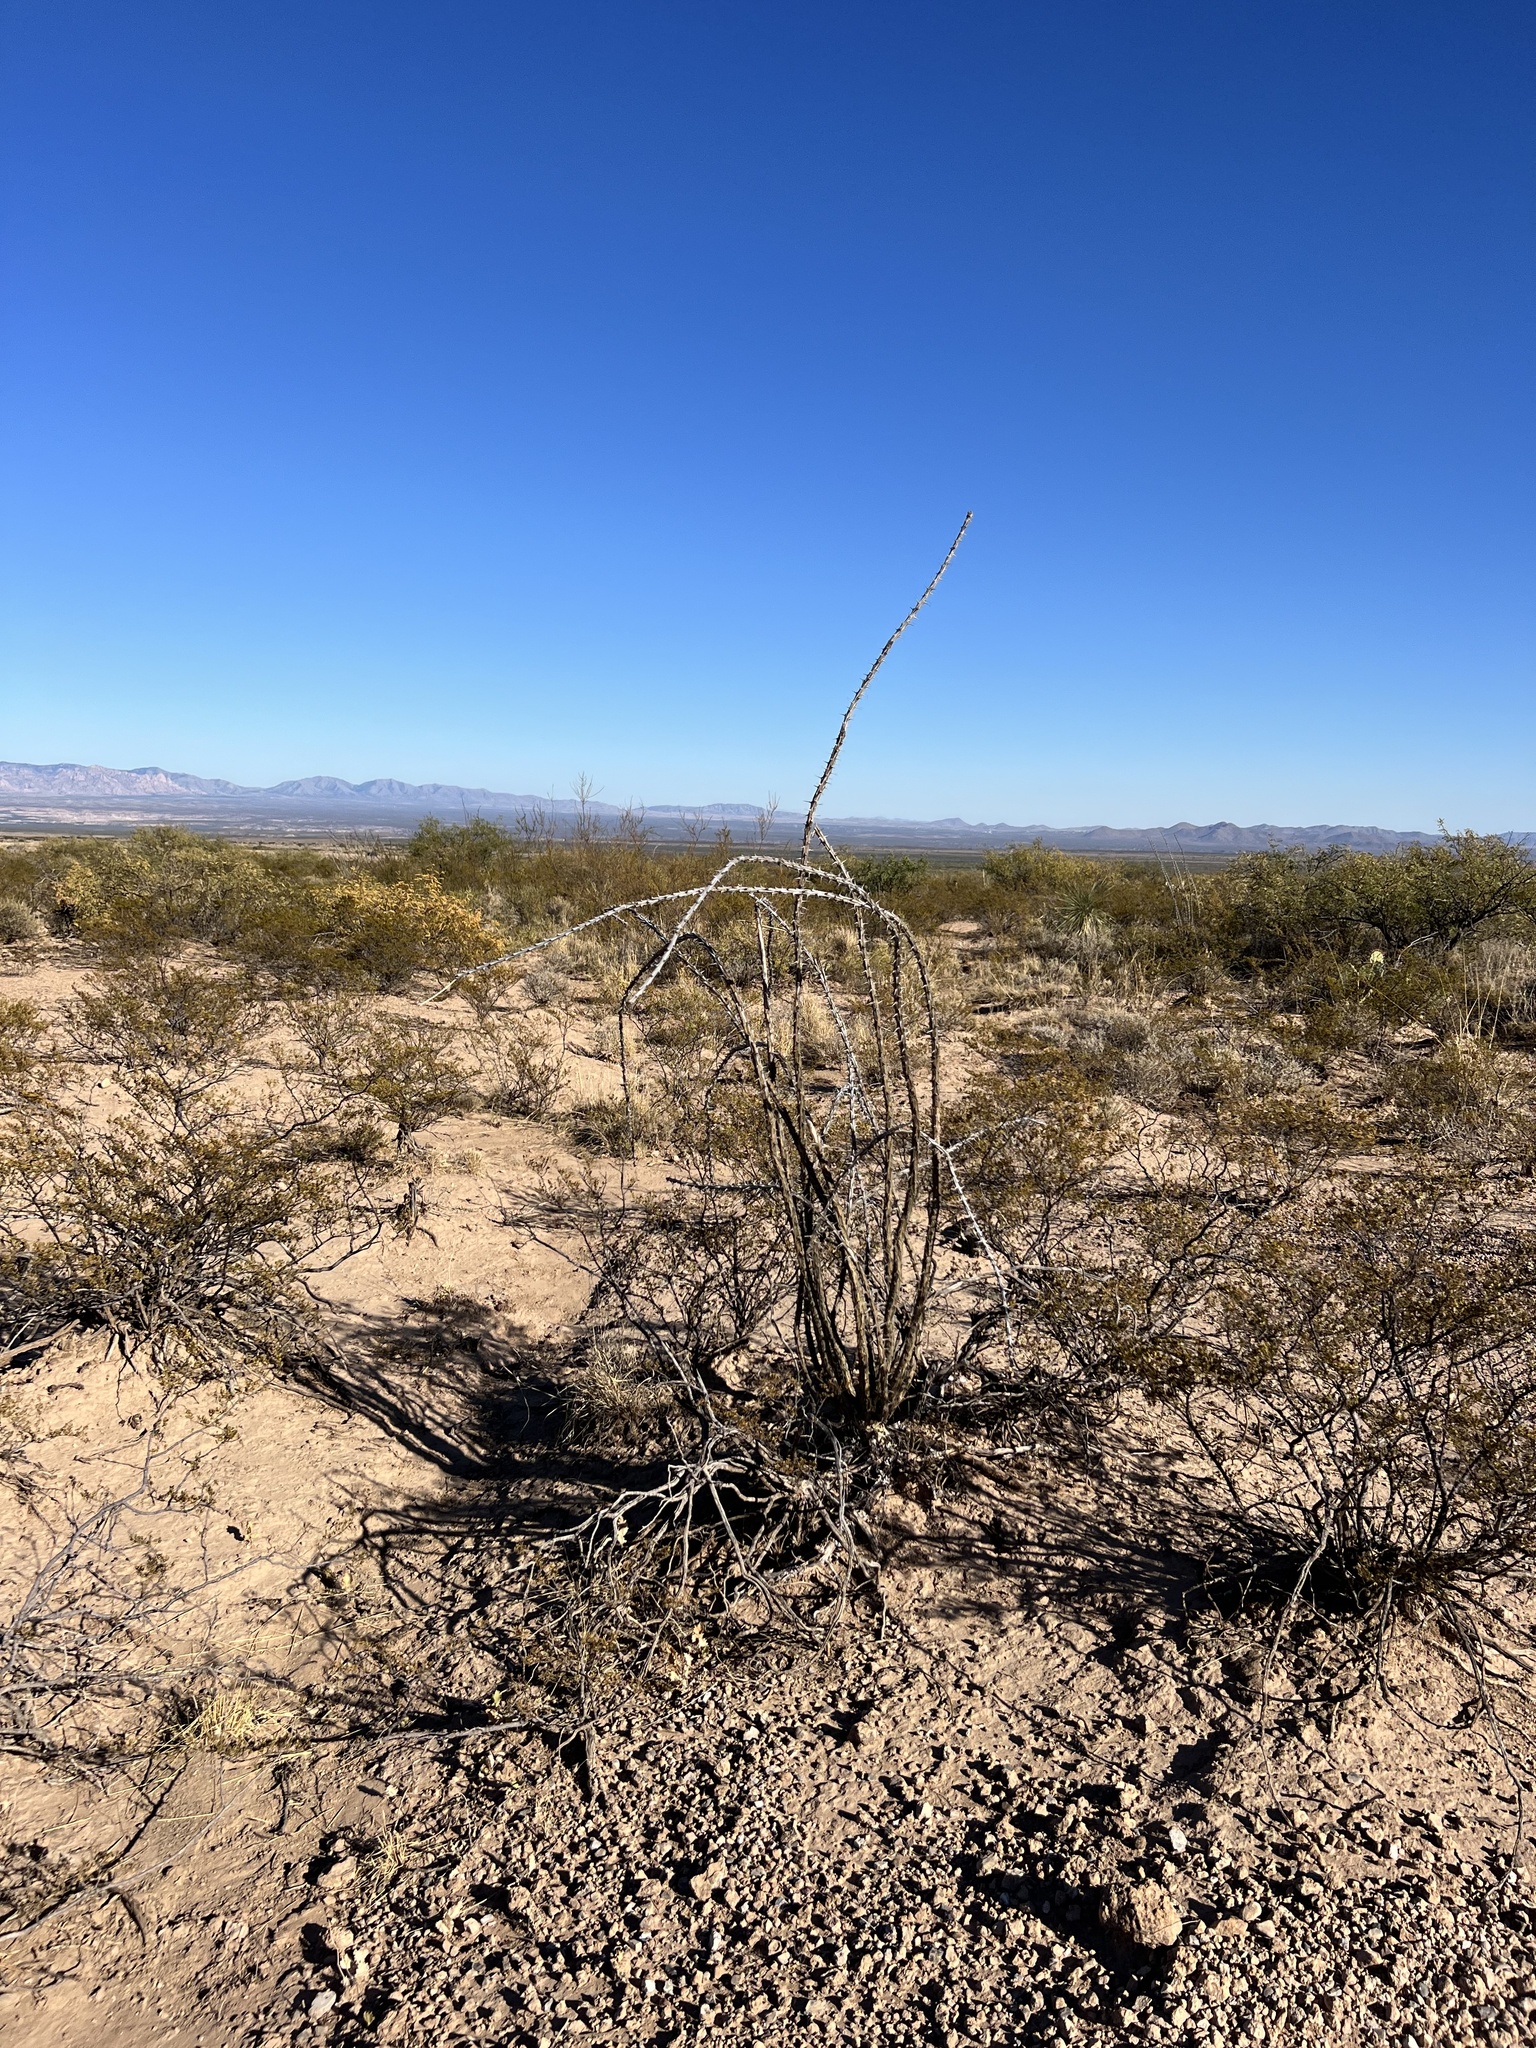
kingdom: Plantae
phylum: Tracheophyta
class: Magnoliopsida
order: Ericales
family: Fouquieriaceae
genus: Fouquieria
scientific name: Fouquieria splendens
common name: Vine-cactus
